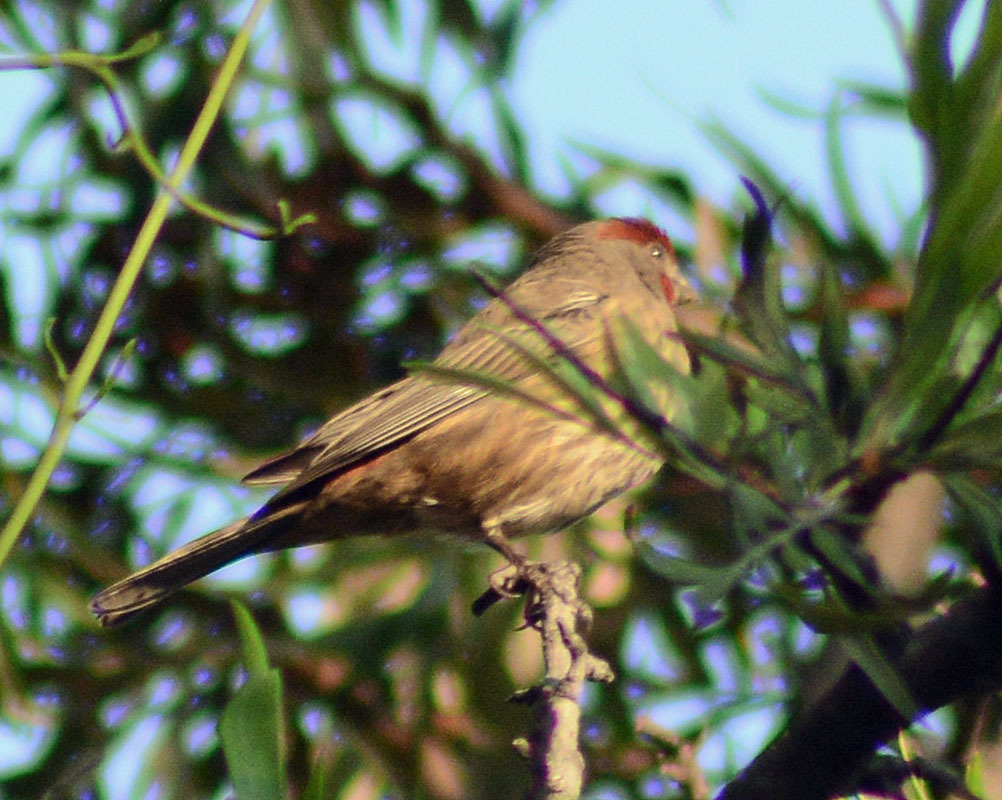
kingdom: Animalia
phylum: Chordata
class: Aves
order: Passeriformes
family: Fringillidae
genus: Haemorhous
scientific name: Haemorhous mexicanus
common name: House finch
